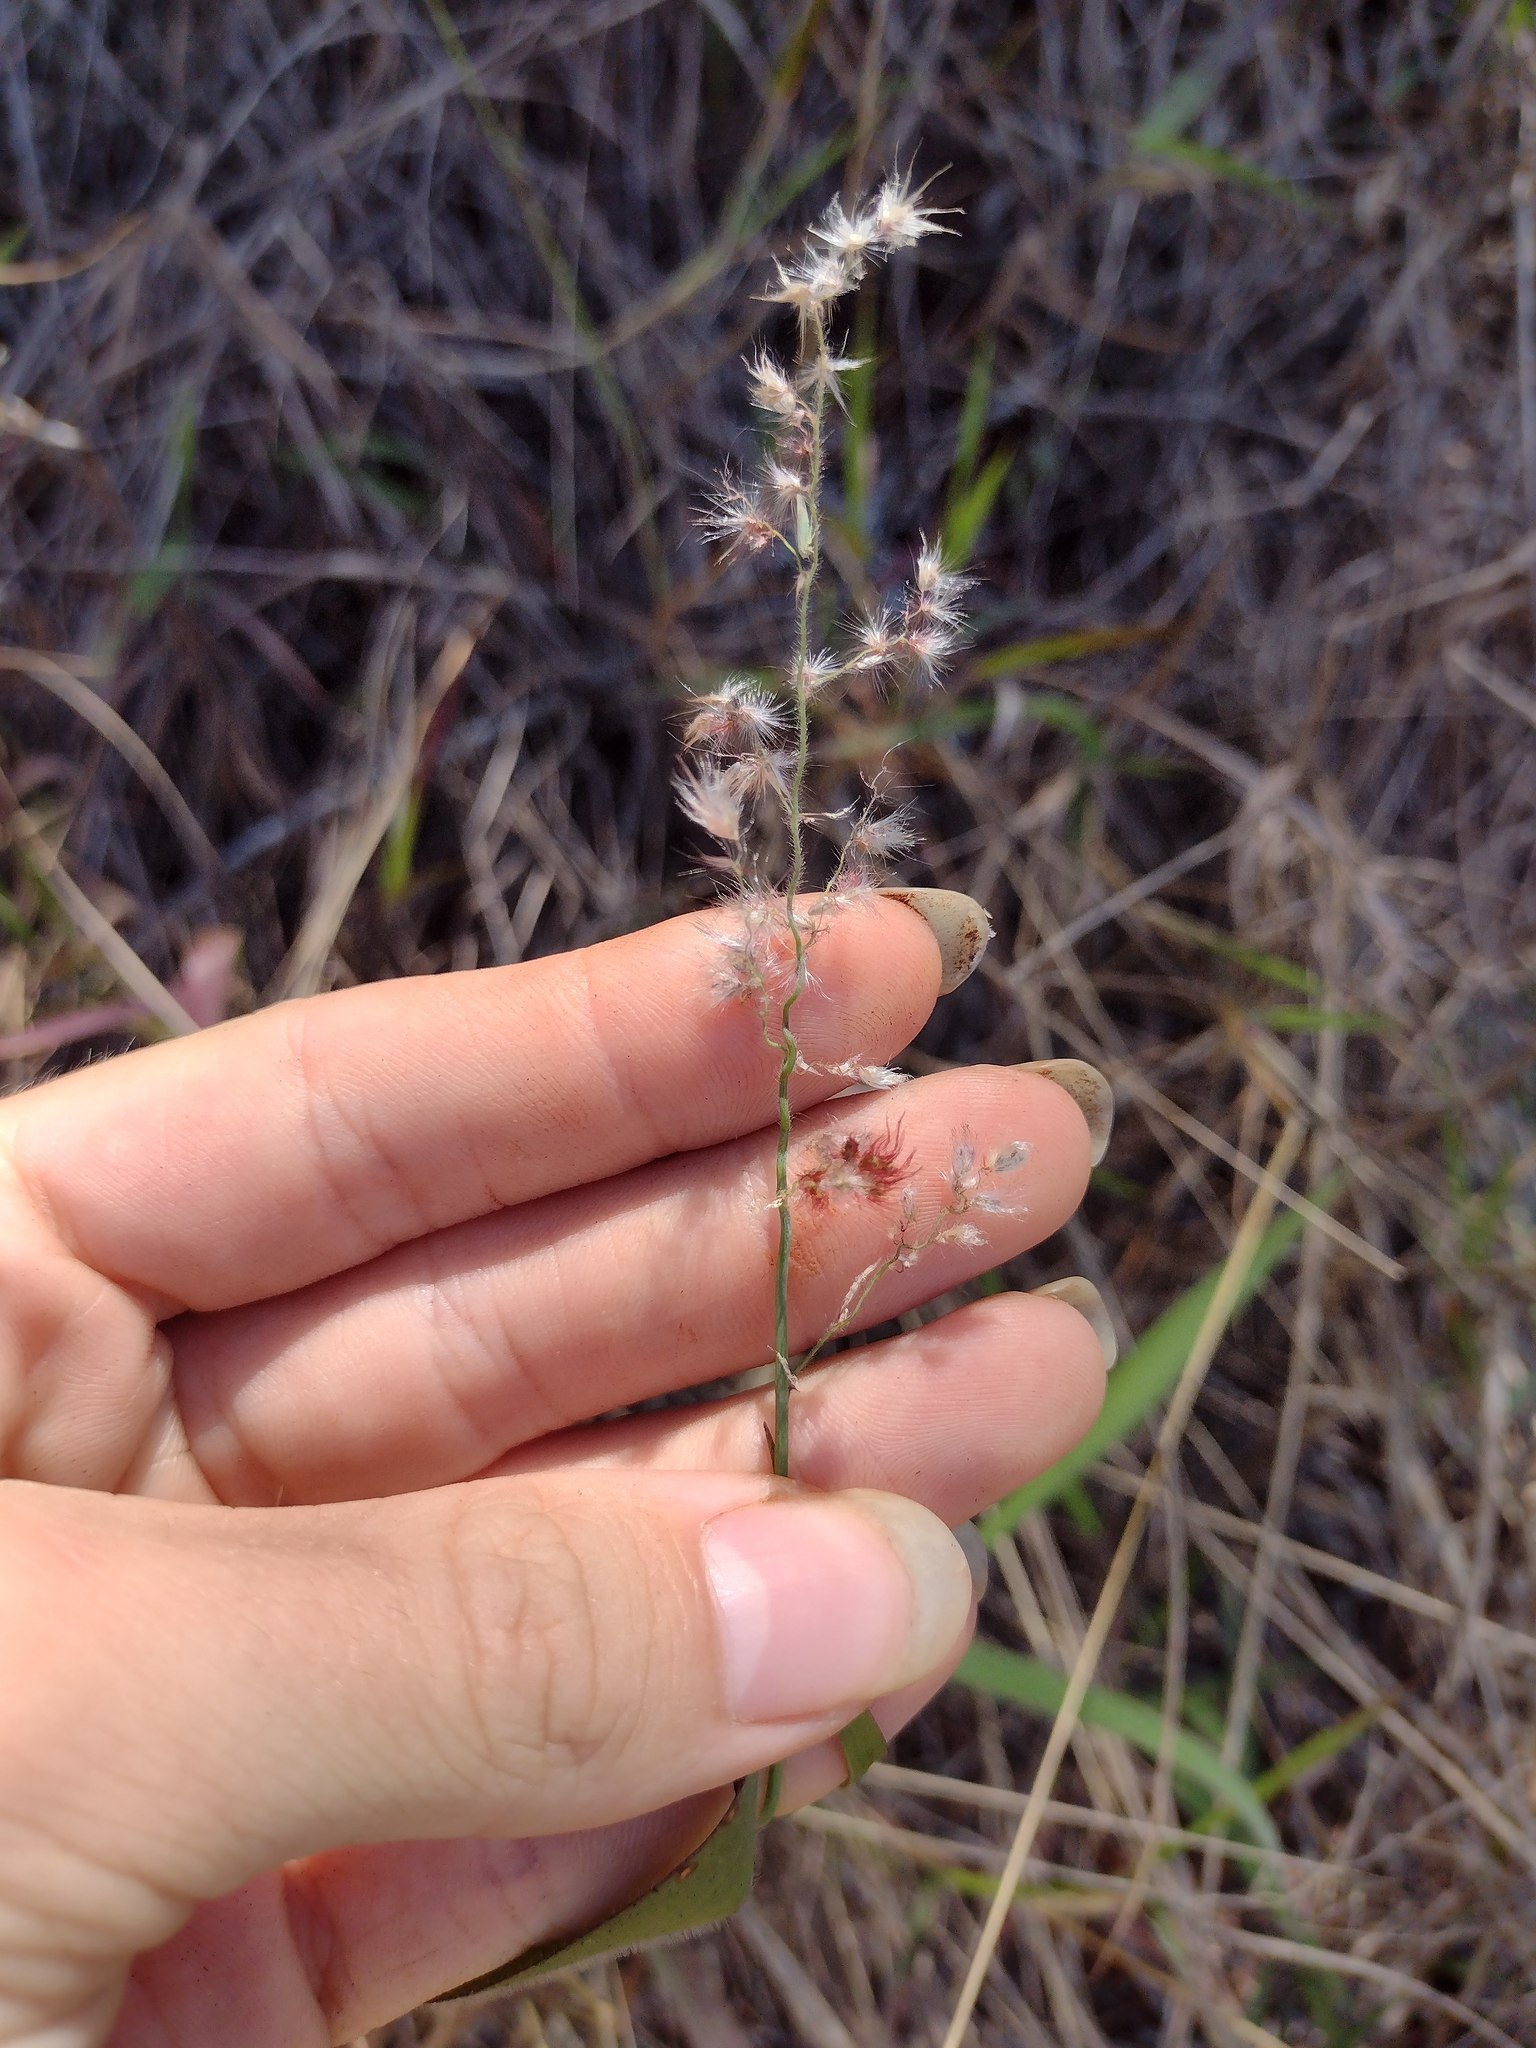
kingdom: Plantae
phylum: Tracheophyta
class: Liliopsida
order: Poales
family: Poaceae
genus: Melinis
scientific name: Melinis repens
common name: Rose natal grass
